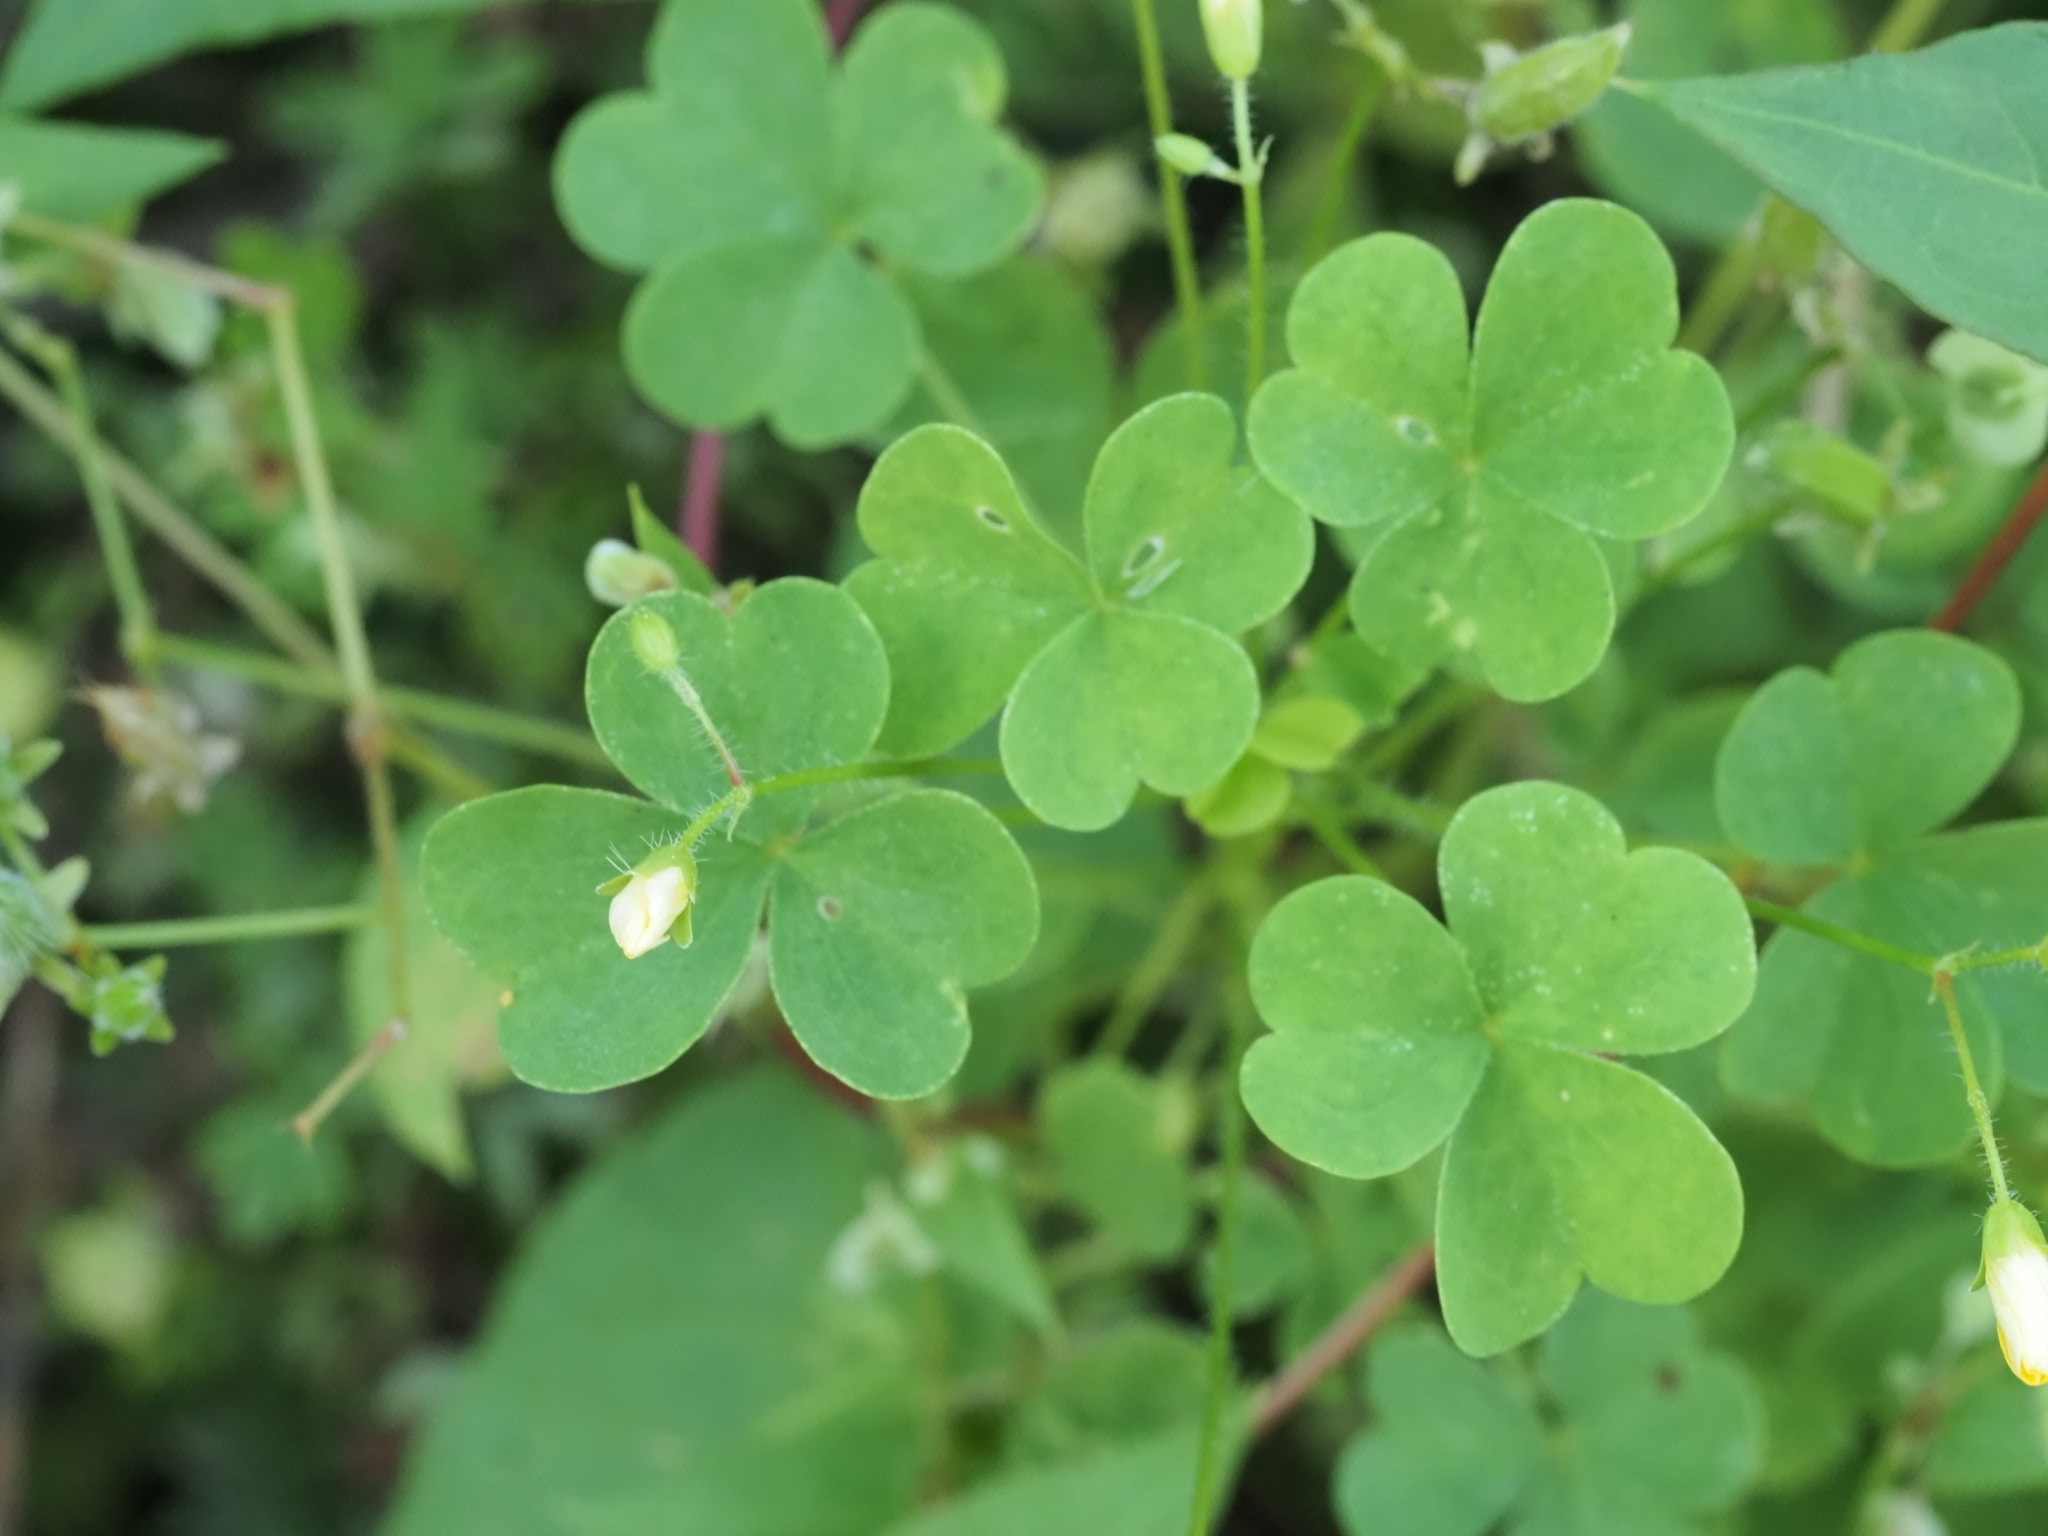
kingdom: Plantae
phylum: Tracheophyta
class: Magnoliopsida
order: Oxalidales
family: Oxalidaceae
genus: Oxalis
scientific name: Oxalis stricta
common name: Upright yellow-sorrel
